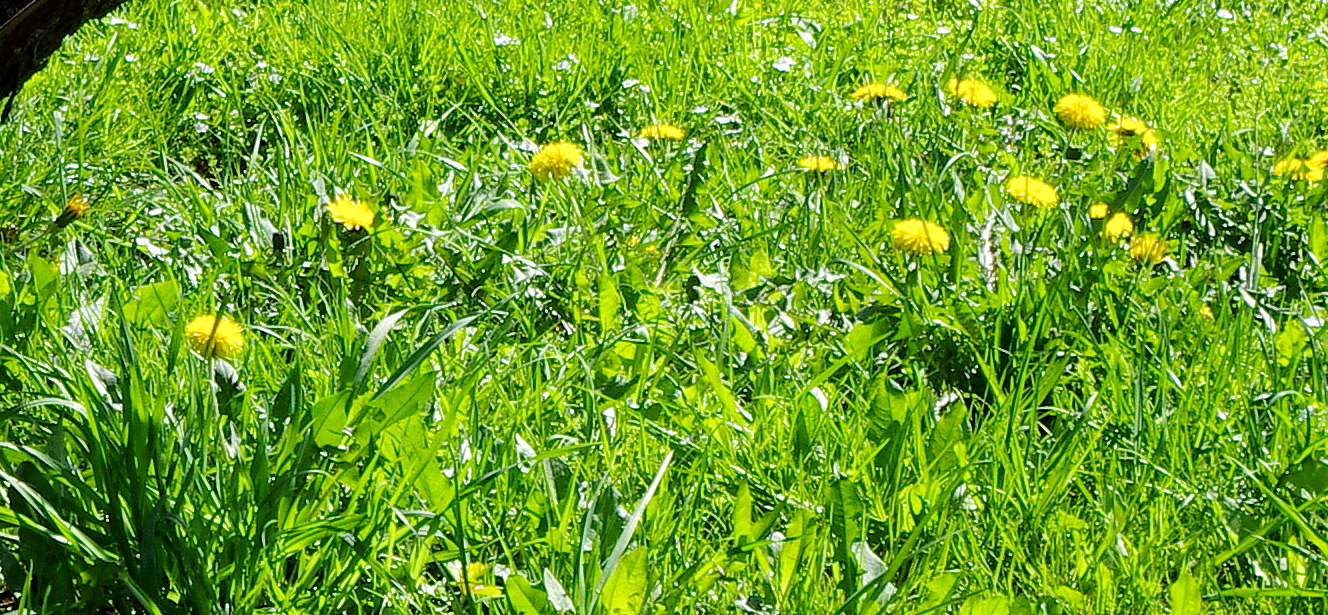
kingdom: Plantae
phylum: Tracheophyta
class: Magnoliopsida
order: Asterales
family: Asteraceae
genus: Taraxacum
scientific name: Taraxacum officinale
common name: Common dandelion
